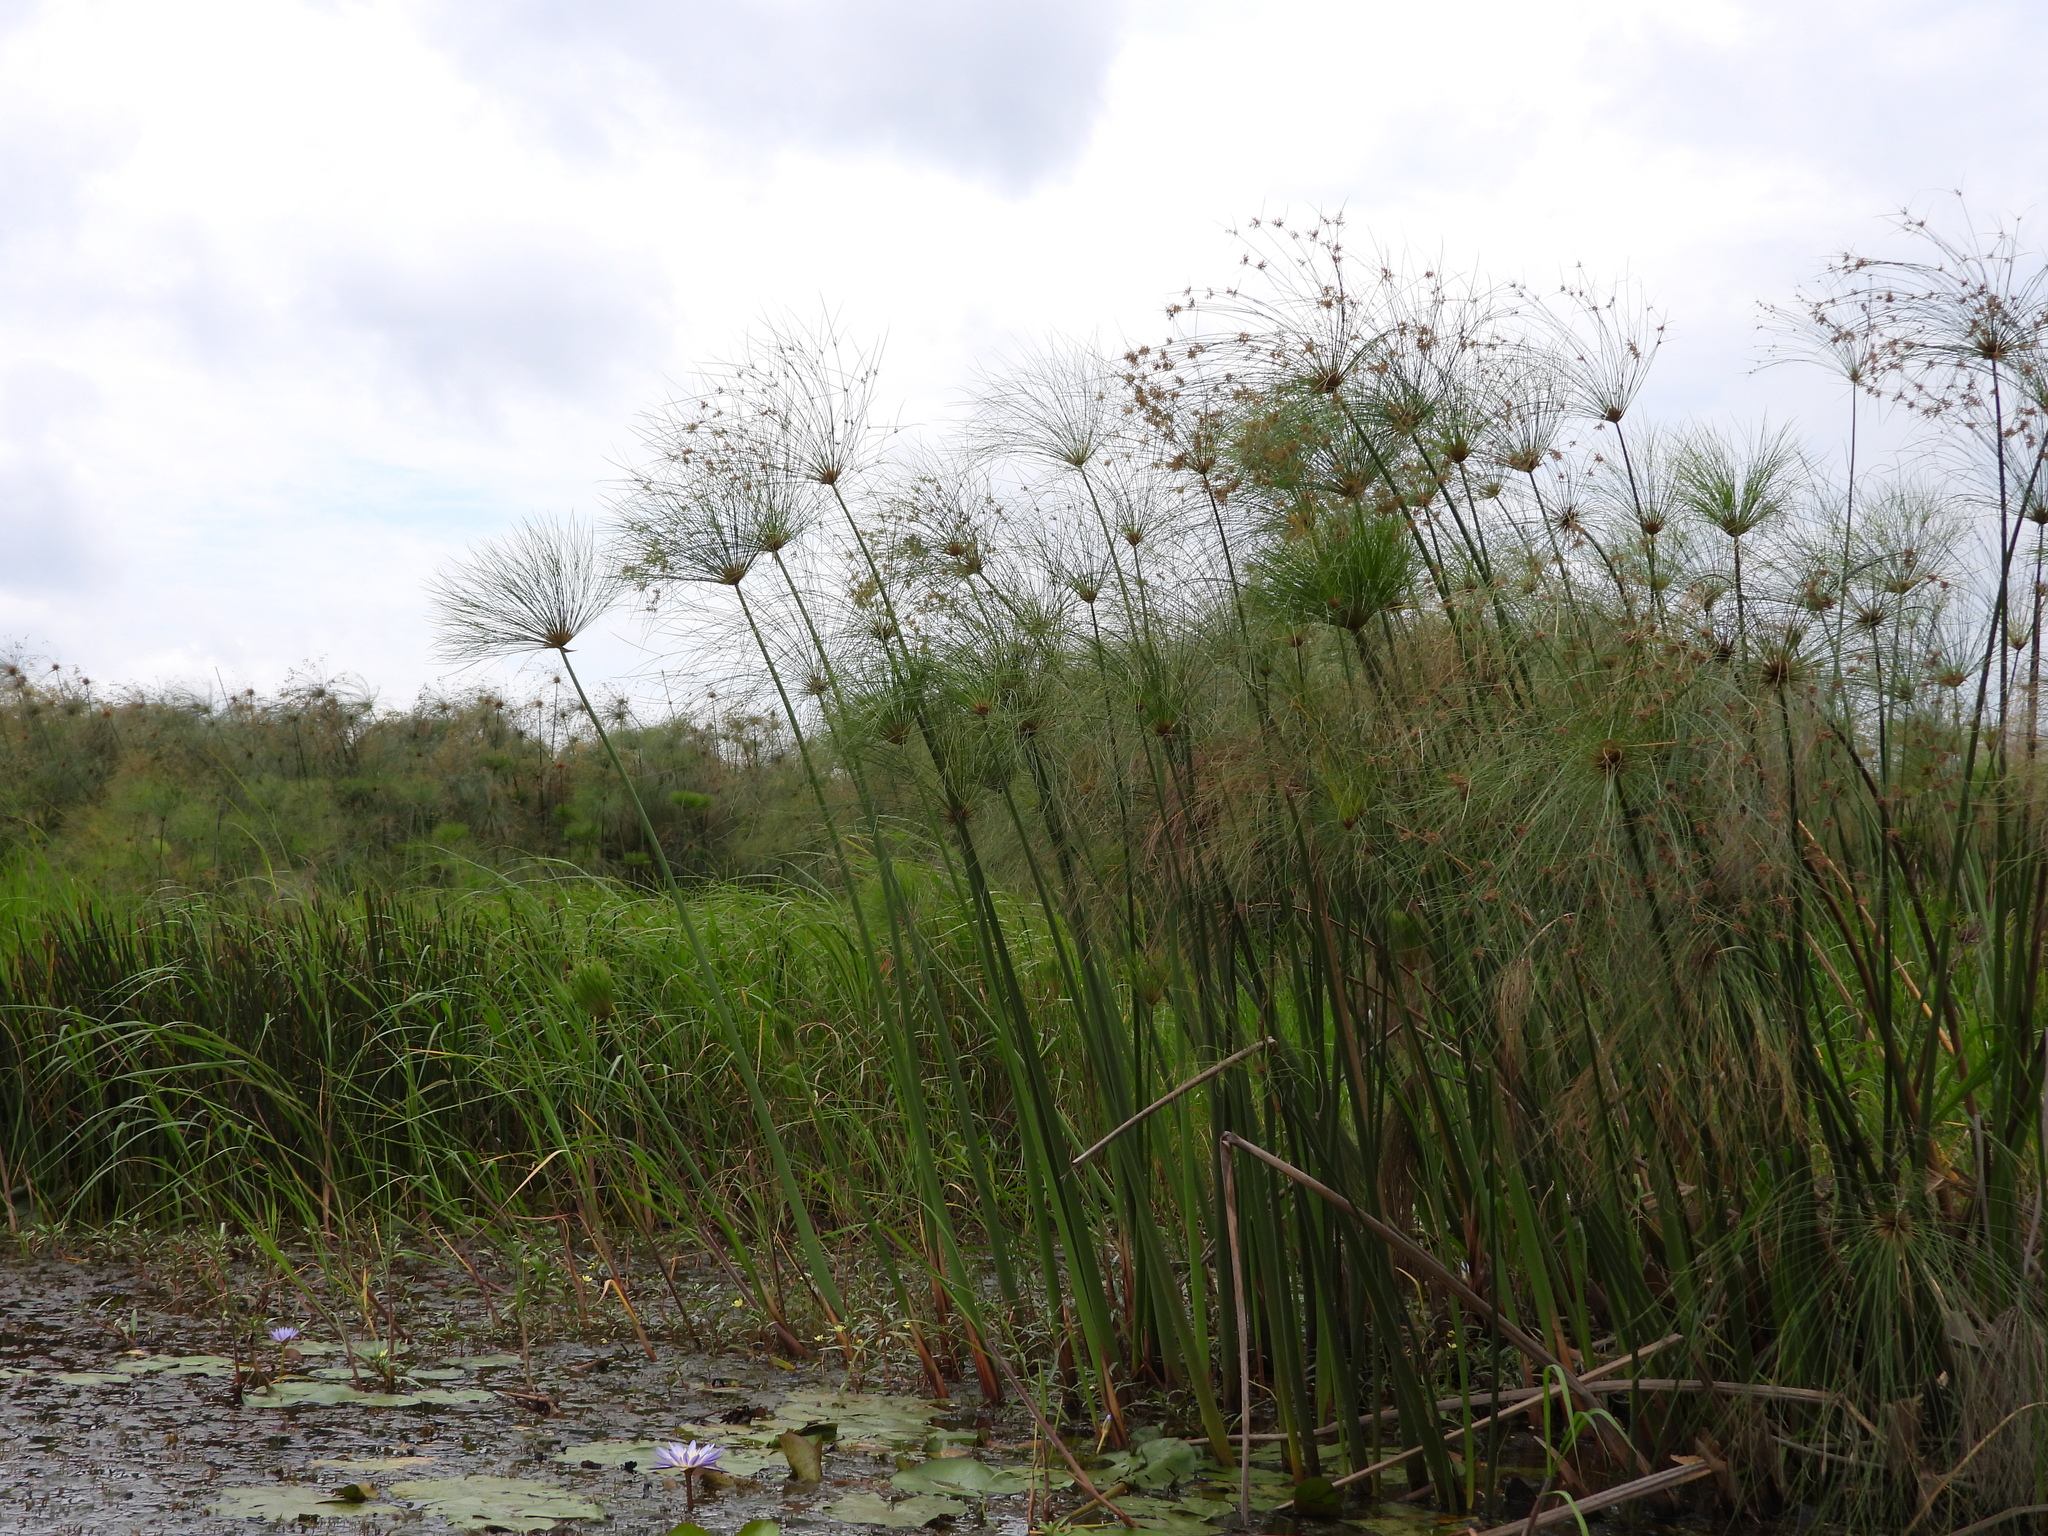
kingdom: Plantae
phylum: Tracheophyta
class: Liliopsida
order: Poales
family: Cyperaceae
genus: Cyperus
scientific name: Cyperus papyrus
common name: Papyrus
